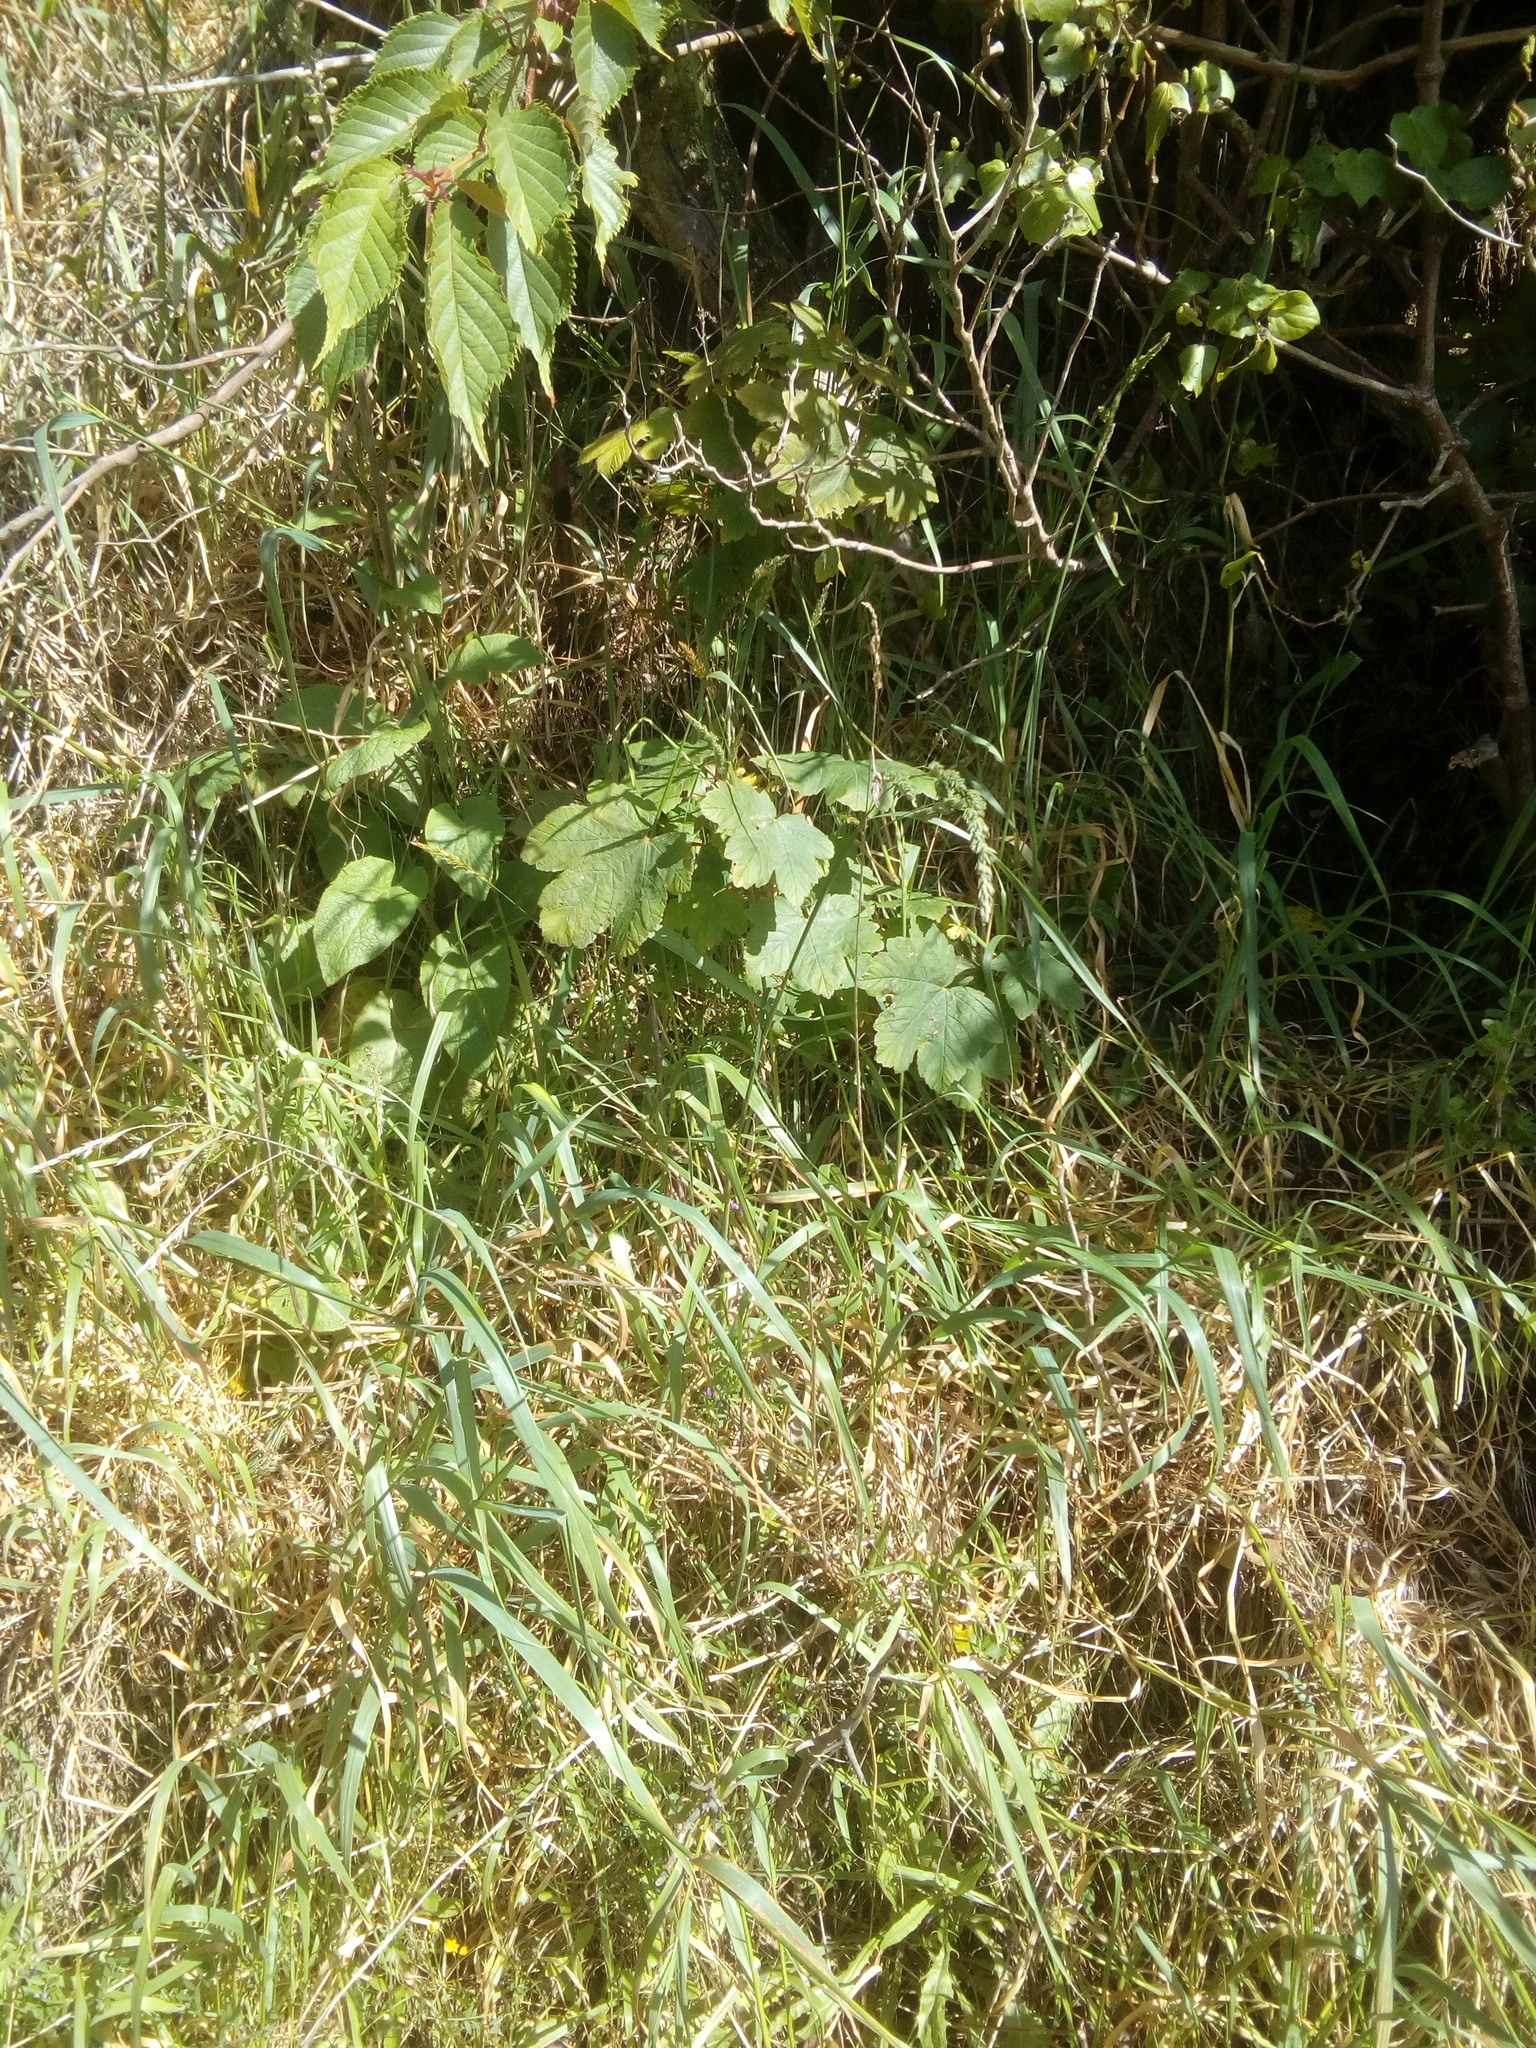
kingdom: Plantae
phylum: Tracheophyta
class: Magnoliopsida
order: Sapindales
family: Sapindaceae
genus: Acer
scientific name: Acer pseudoplatanus
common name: Sycamore
